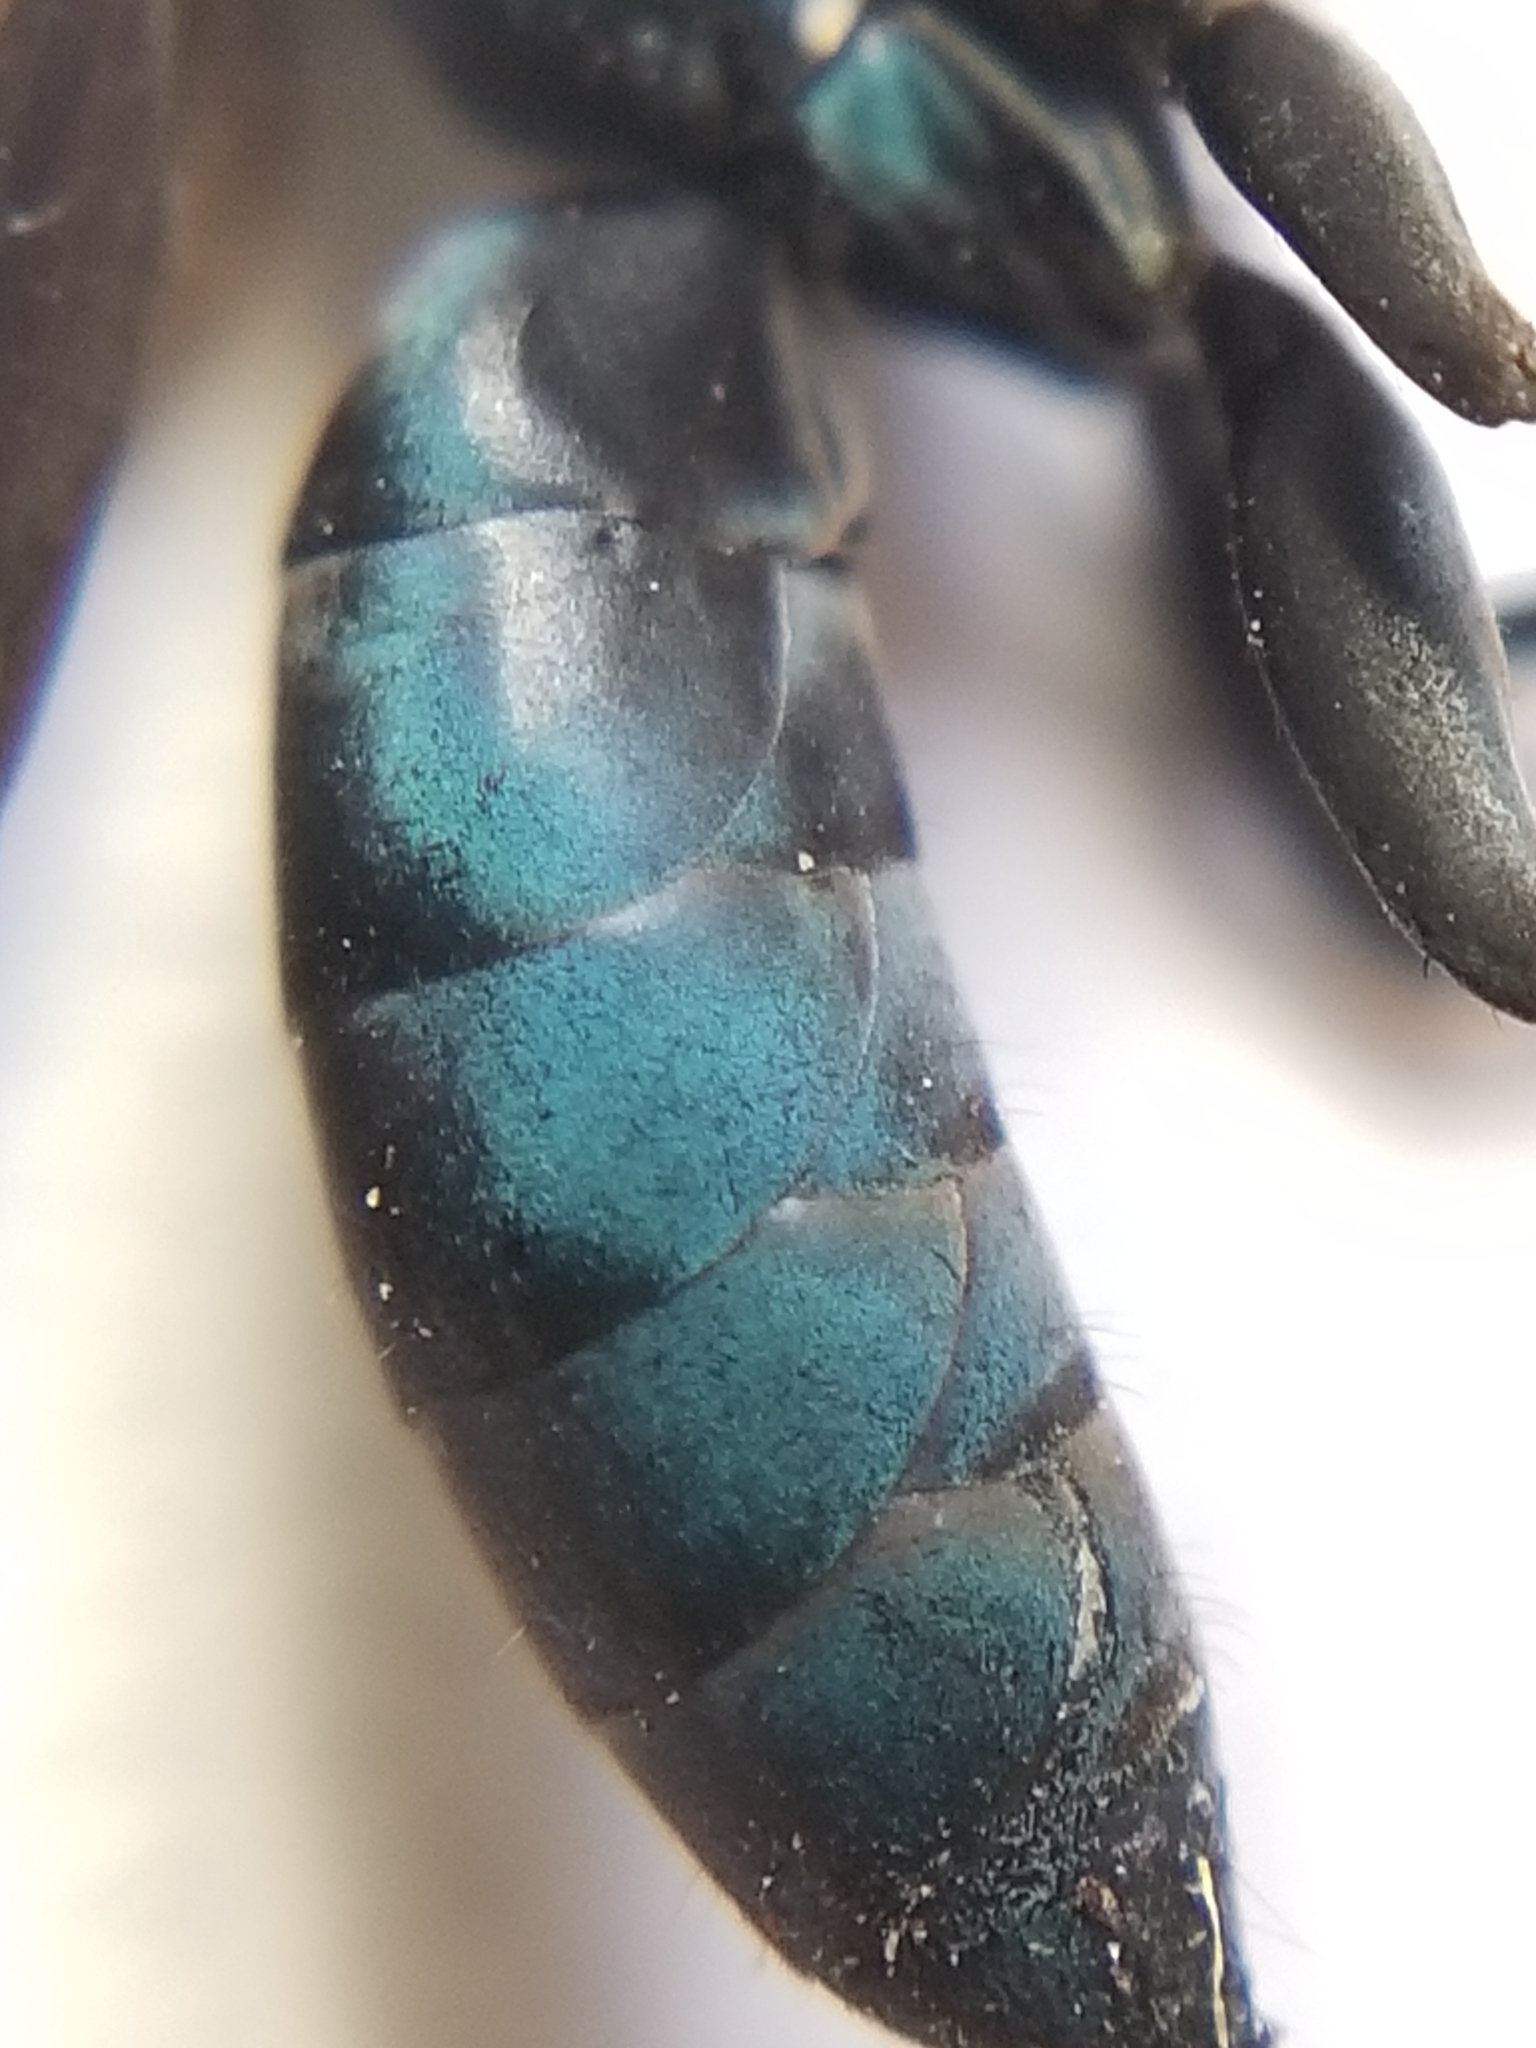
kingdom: Animalia
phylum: Arthropoda
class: Insecta
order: Hymenoptera
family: Pompilidae
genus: Aporus
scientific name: Aporus luxus
